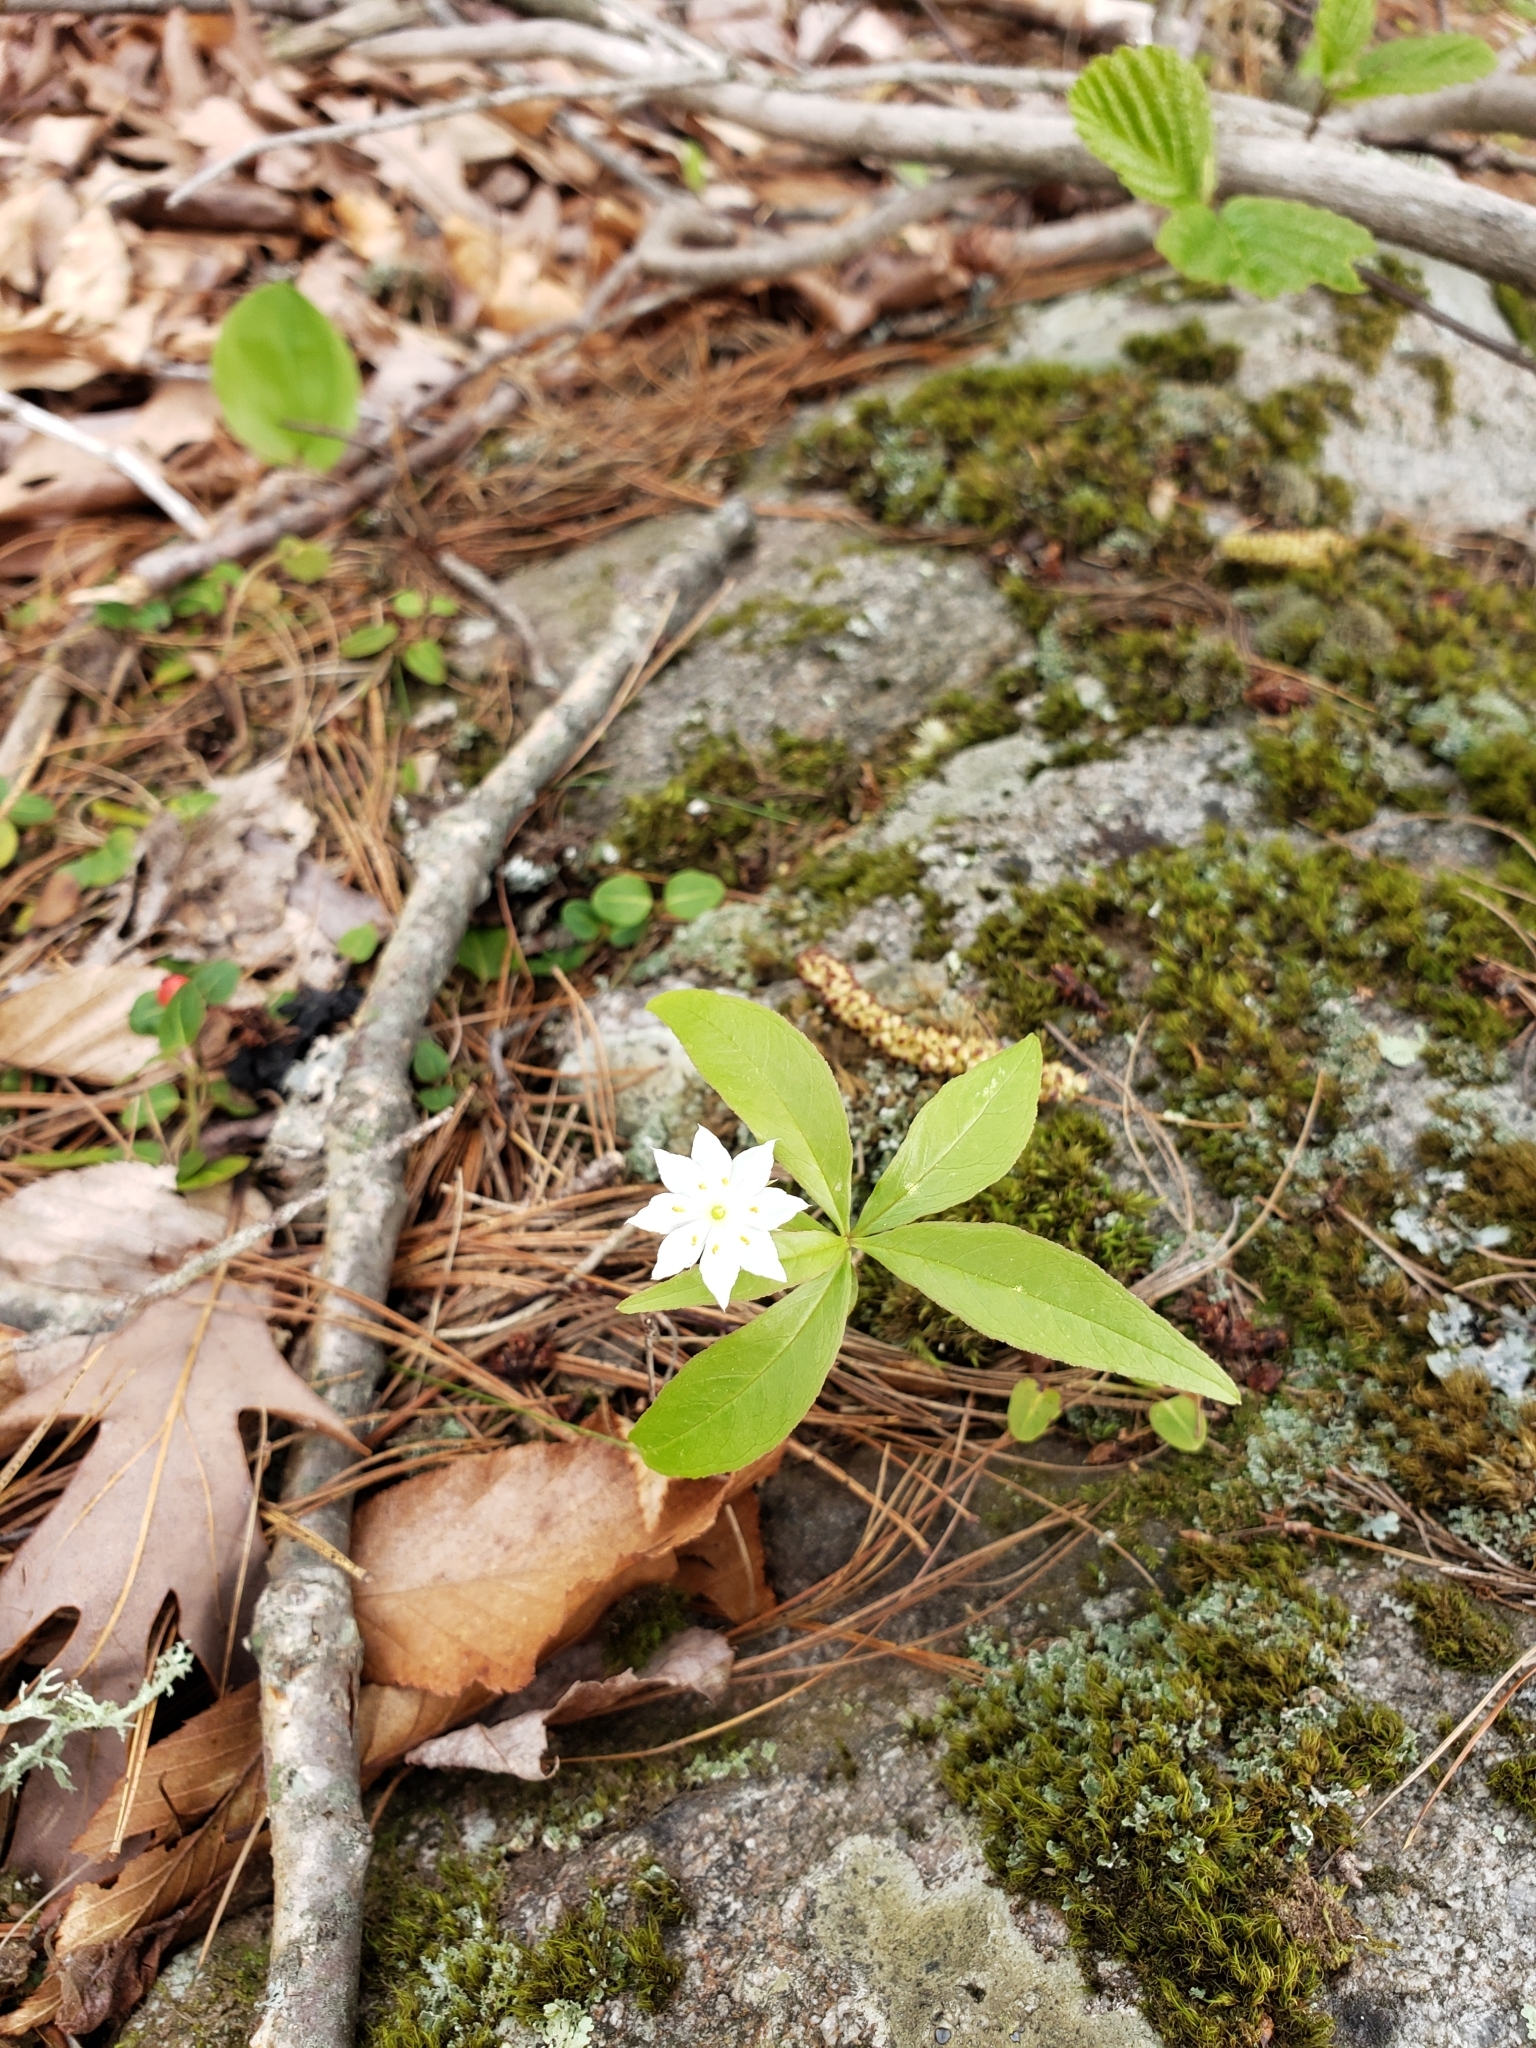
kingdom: Plantae
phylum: Tracheophyta
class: Magnoliopsida
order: Ericales
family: Primulaceae
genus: Lysimachia
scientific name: Lysimachia borealis
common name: American starflower
